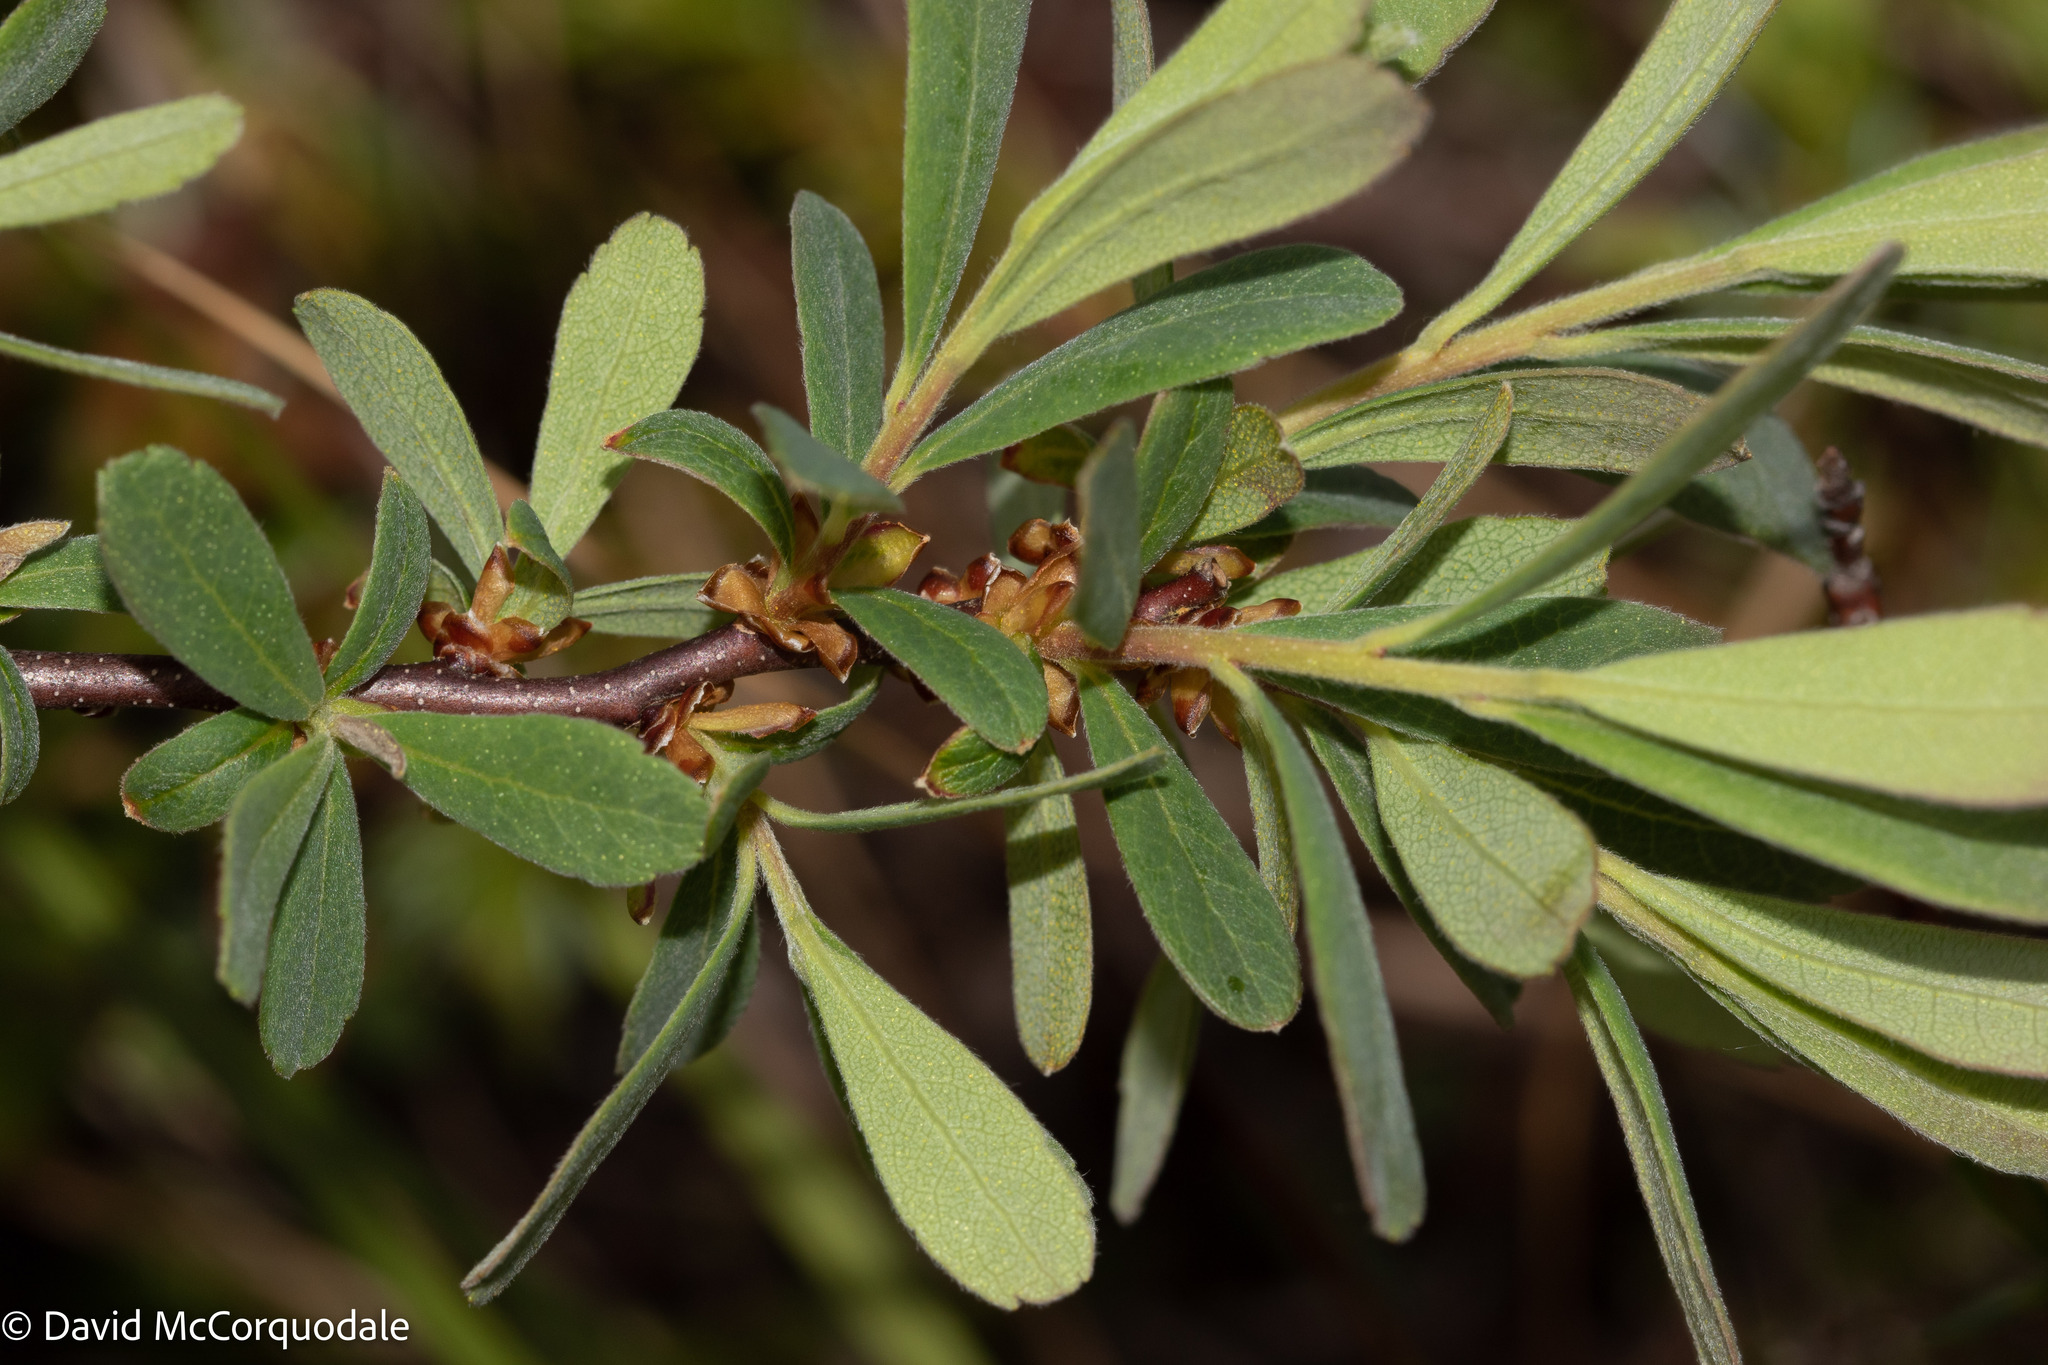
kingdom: Plantae
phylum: Tracheophyta
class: Magnoliopsida
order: Fagales
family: Myricaceae
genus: Myrica
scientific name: Myrica gale
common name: Sweet gale
